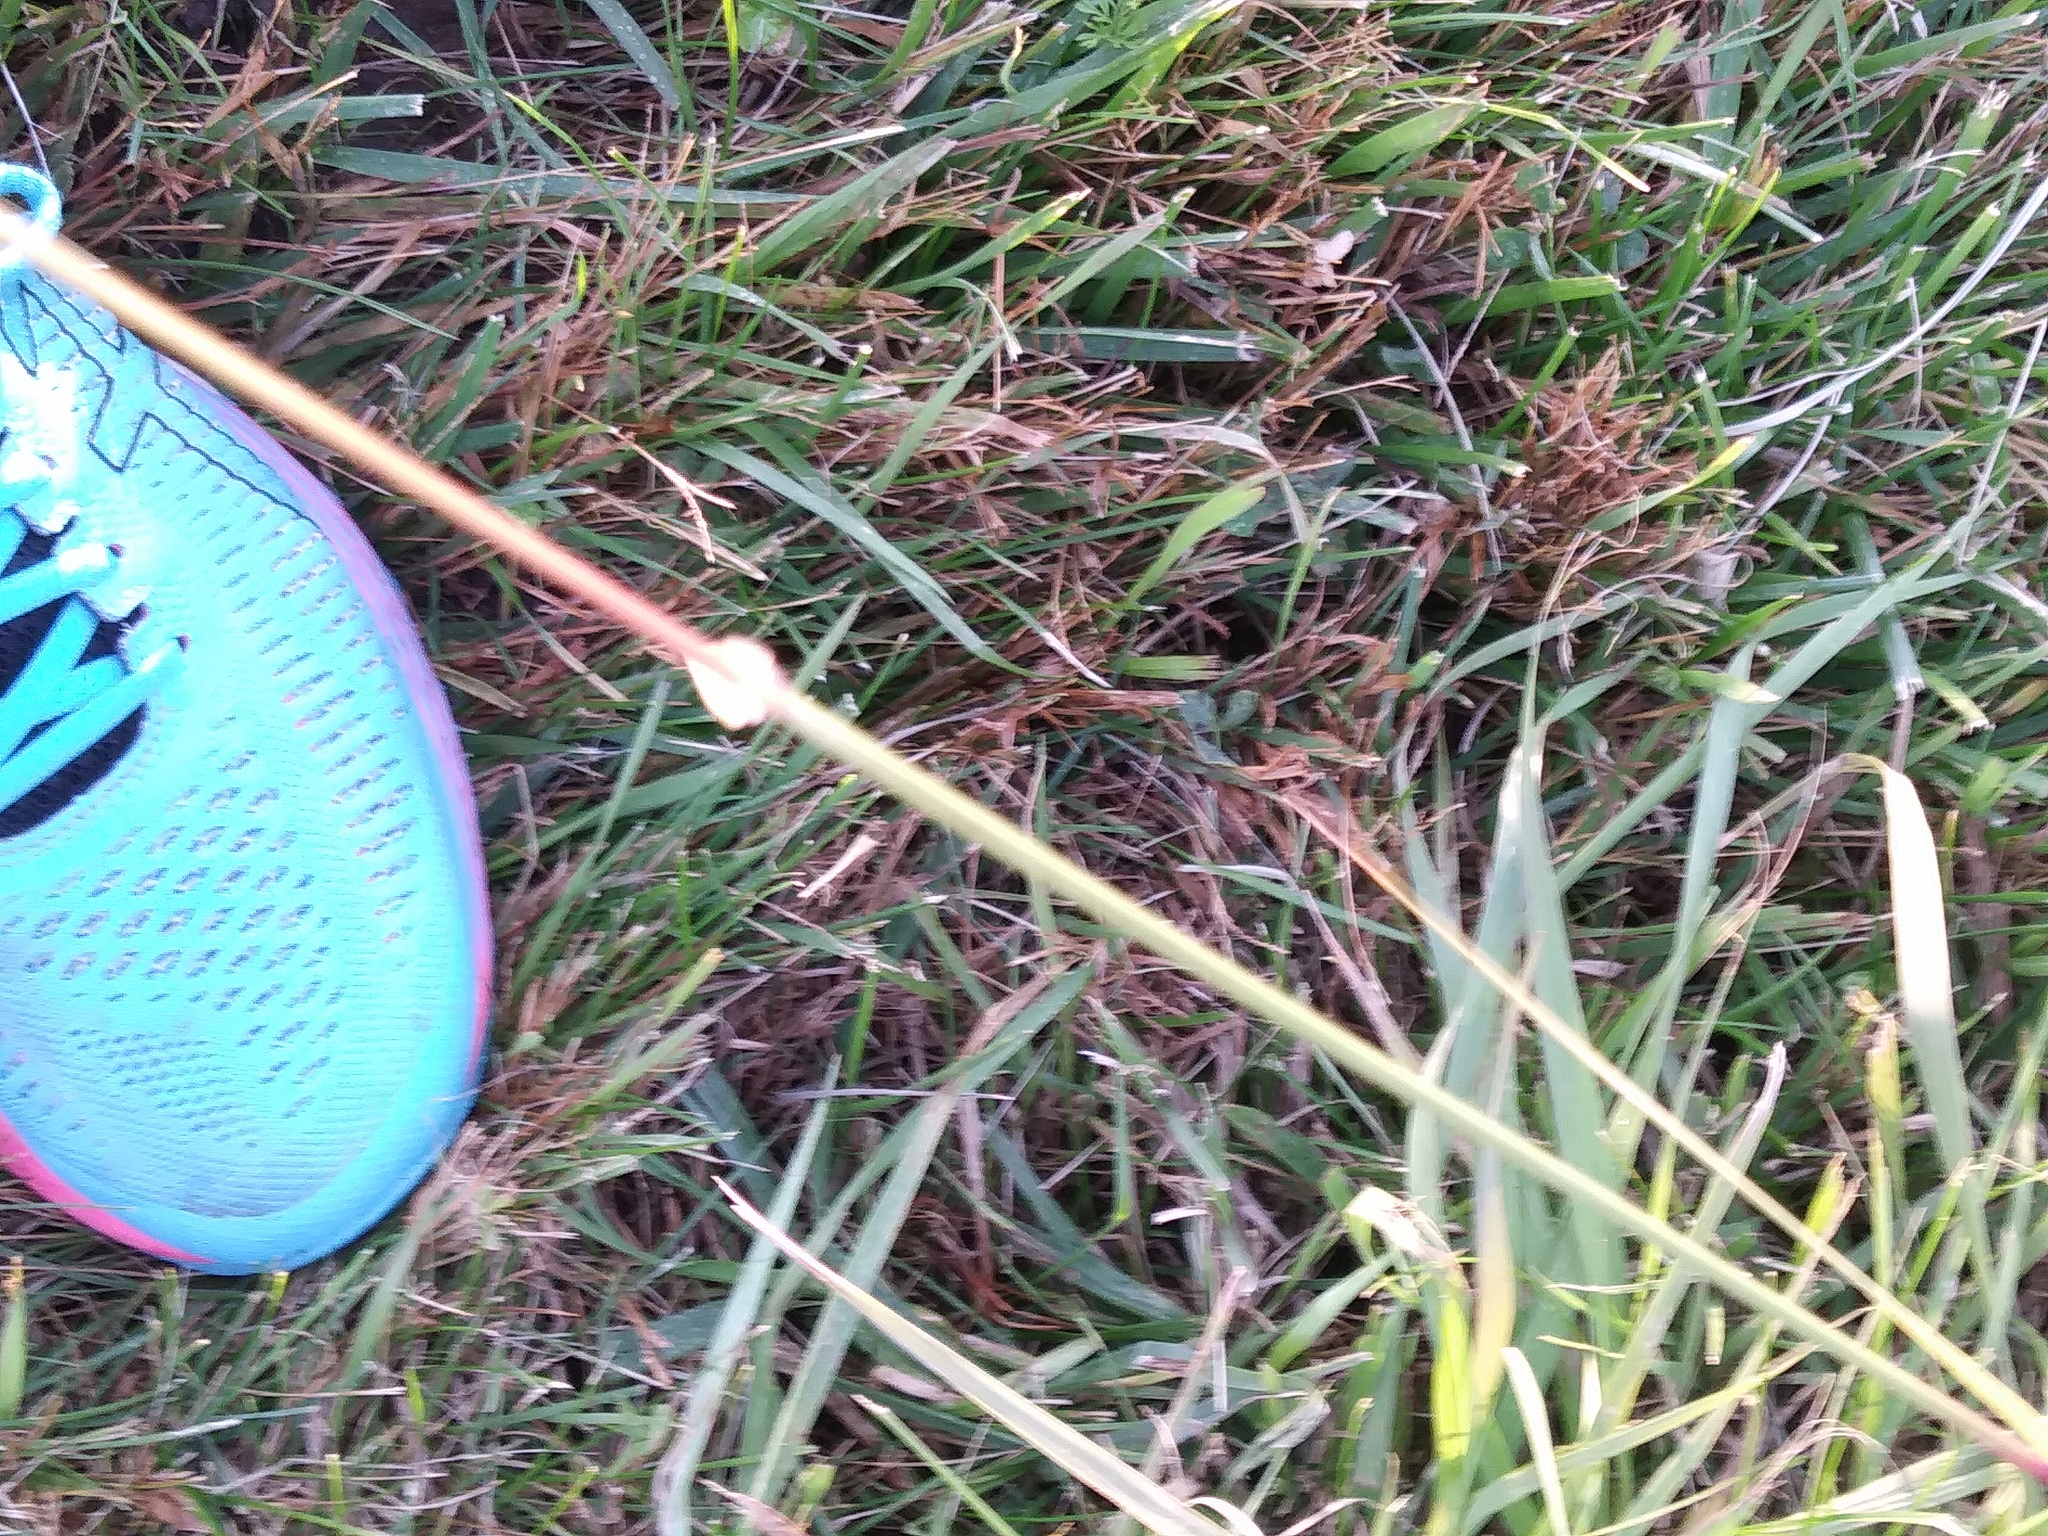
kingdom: Plantae
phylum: Tracheophyta
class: Liliopsida
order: Poales
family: Poaceae
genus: Bouteloua
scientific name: Bouteloua curtipendula
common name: Side-oats grama
